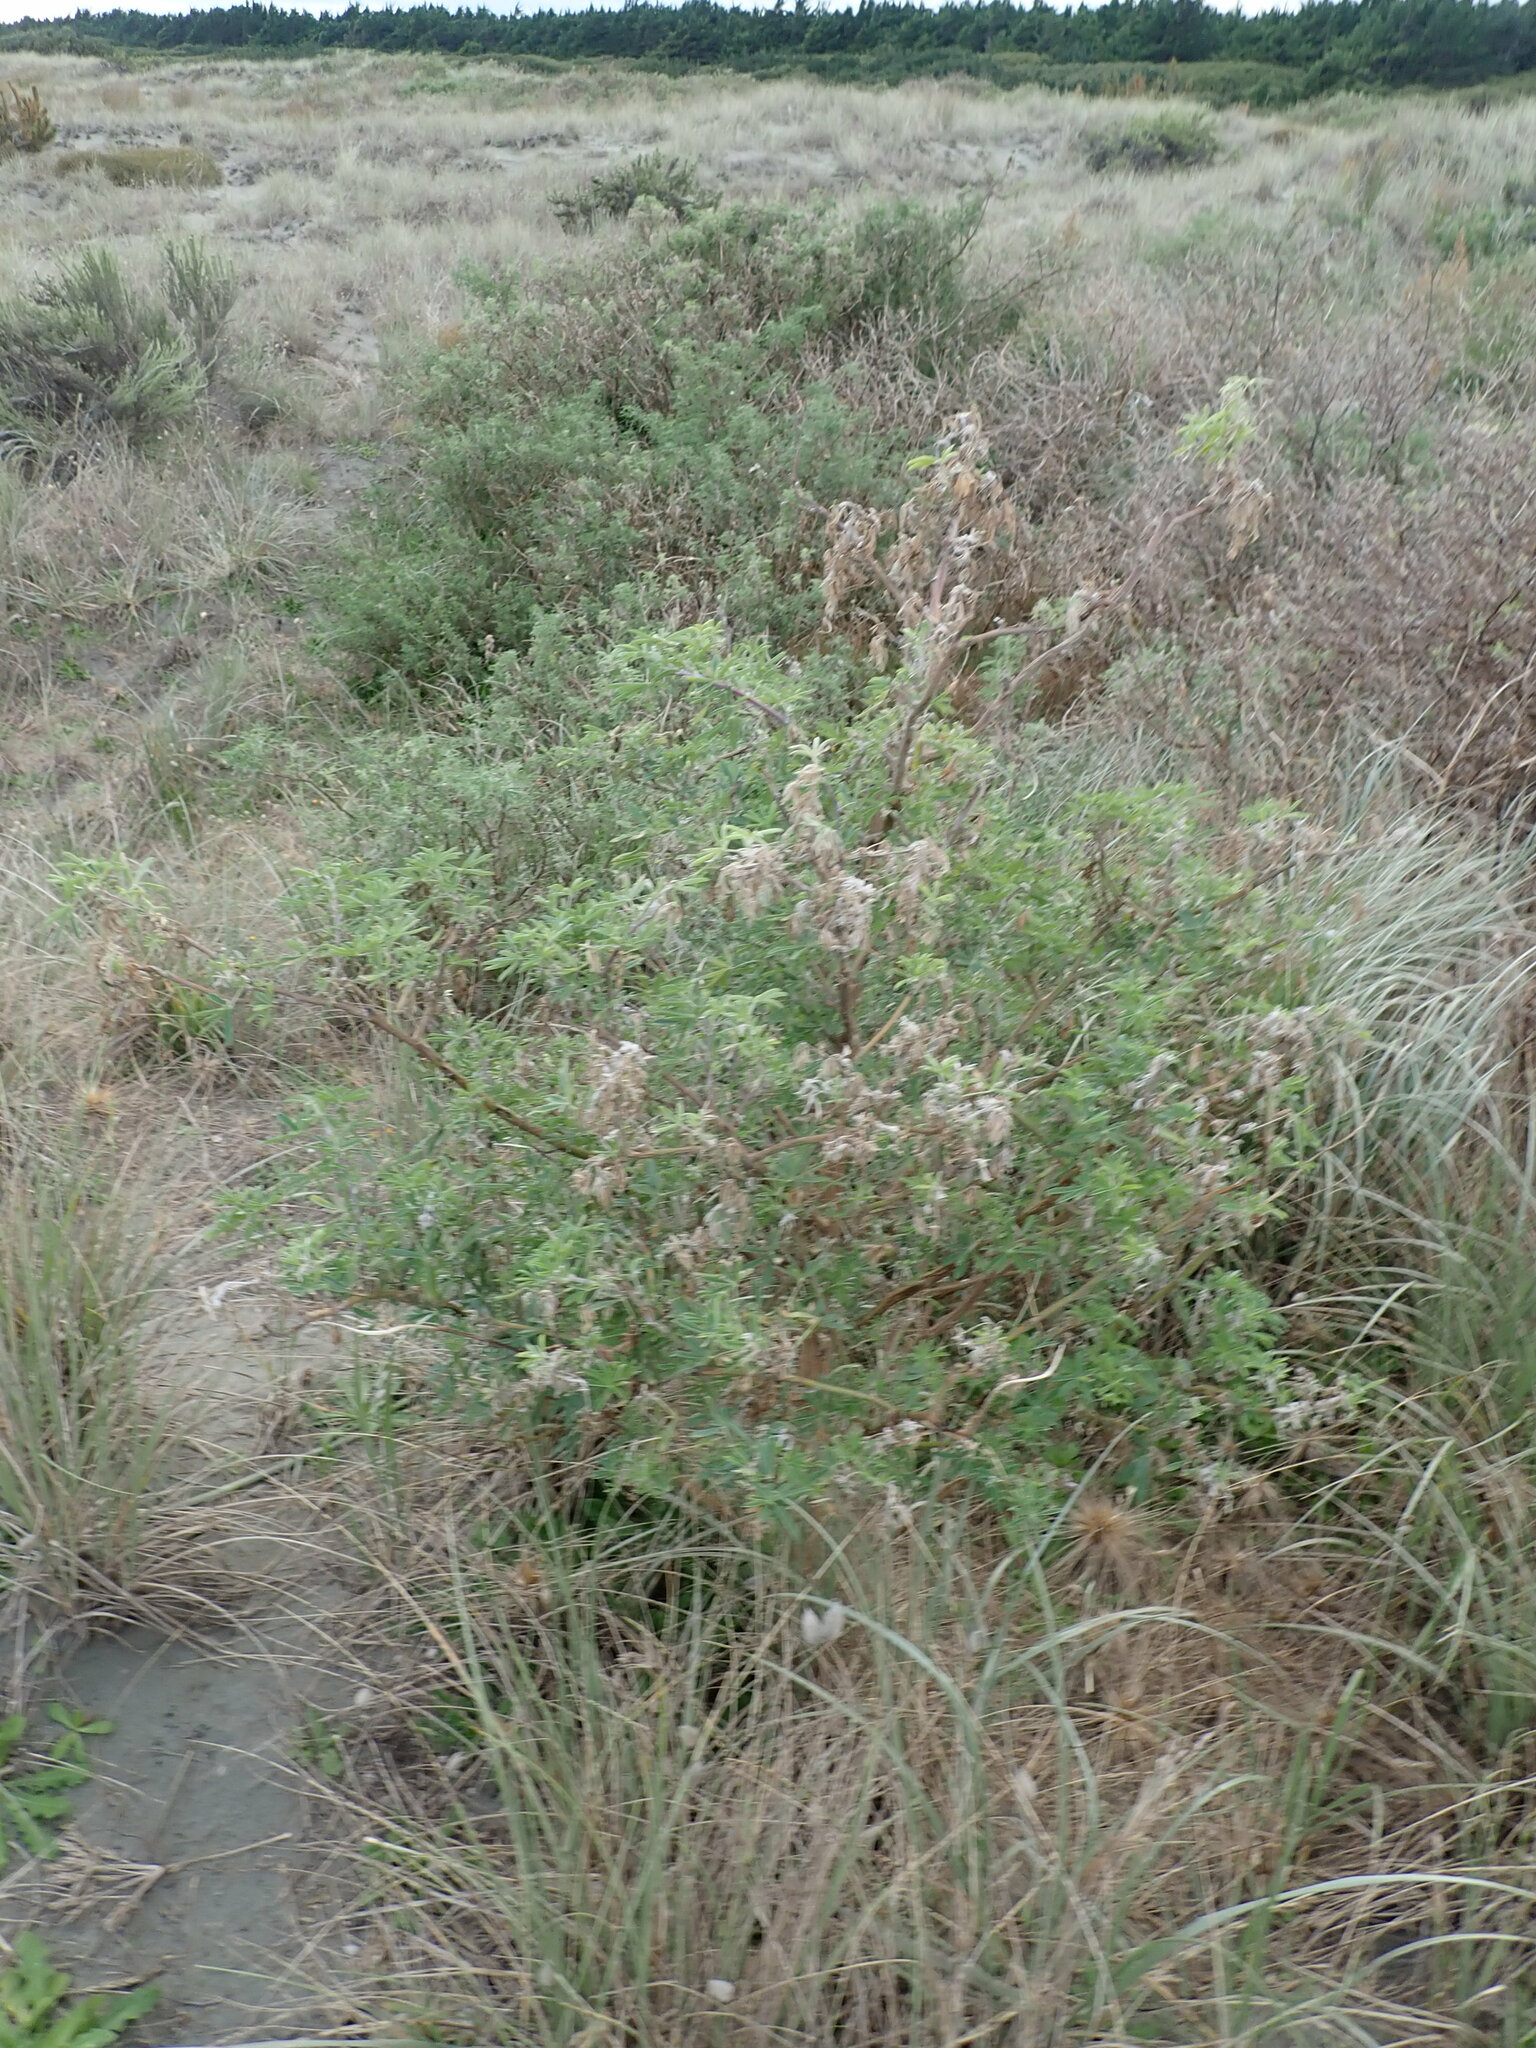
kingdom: Plantae
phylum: Tracheophyta
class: Magnoliopsida
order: Fabales
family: Fabaceae
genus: Lupinus
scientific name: Lupinus arboreus
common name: Yellow bush lupine
